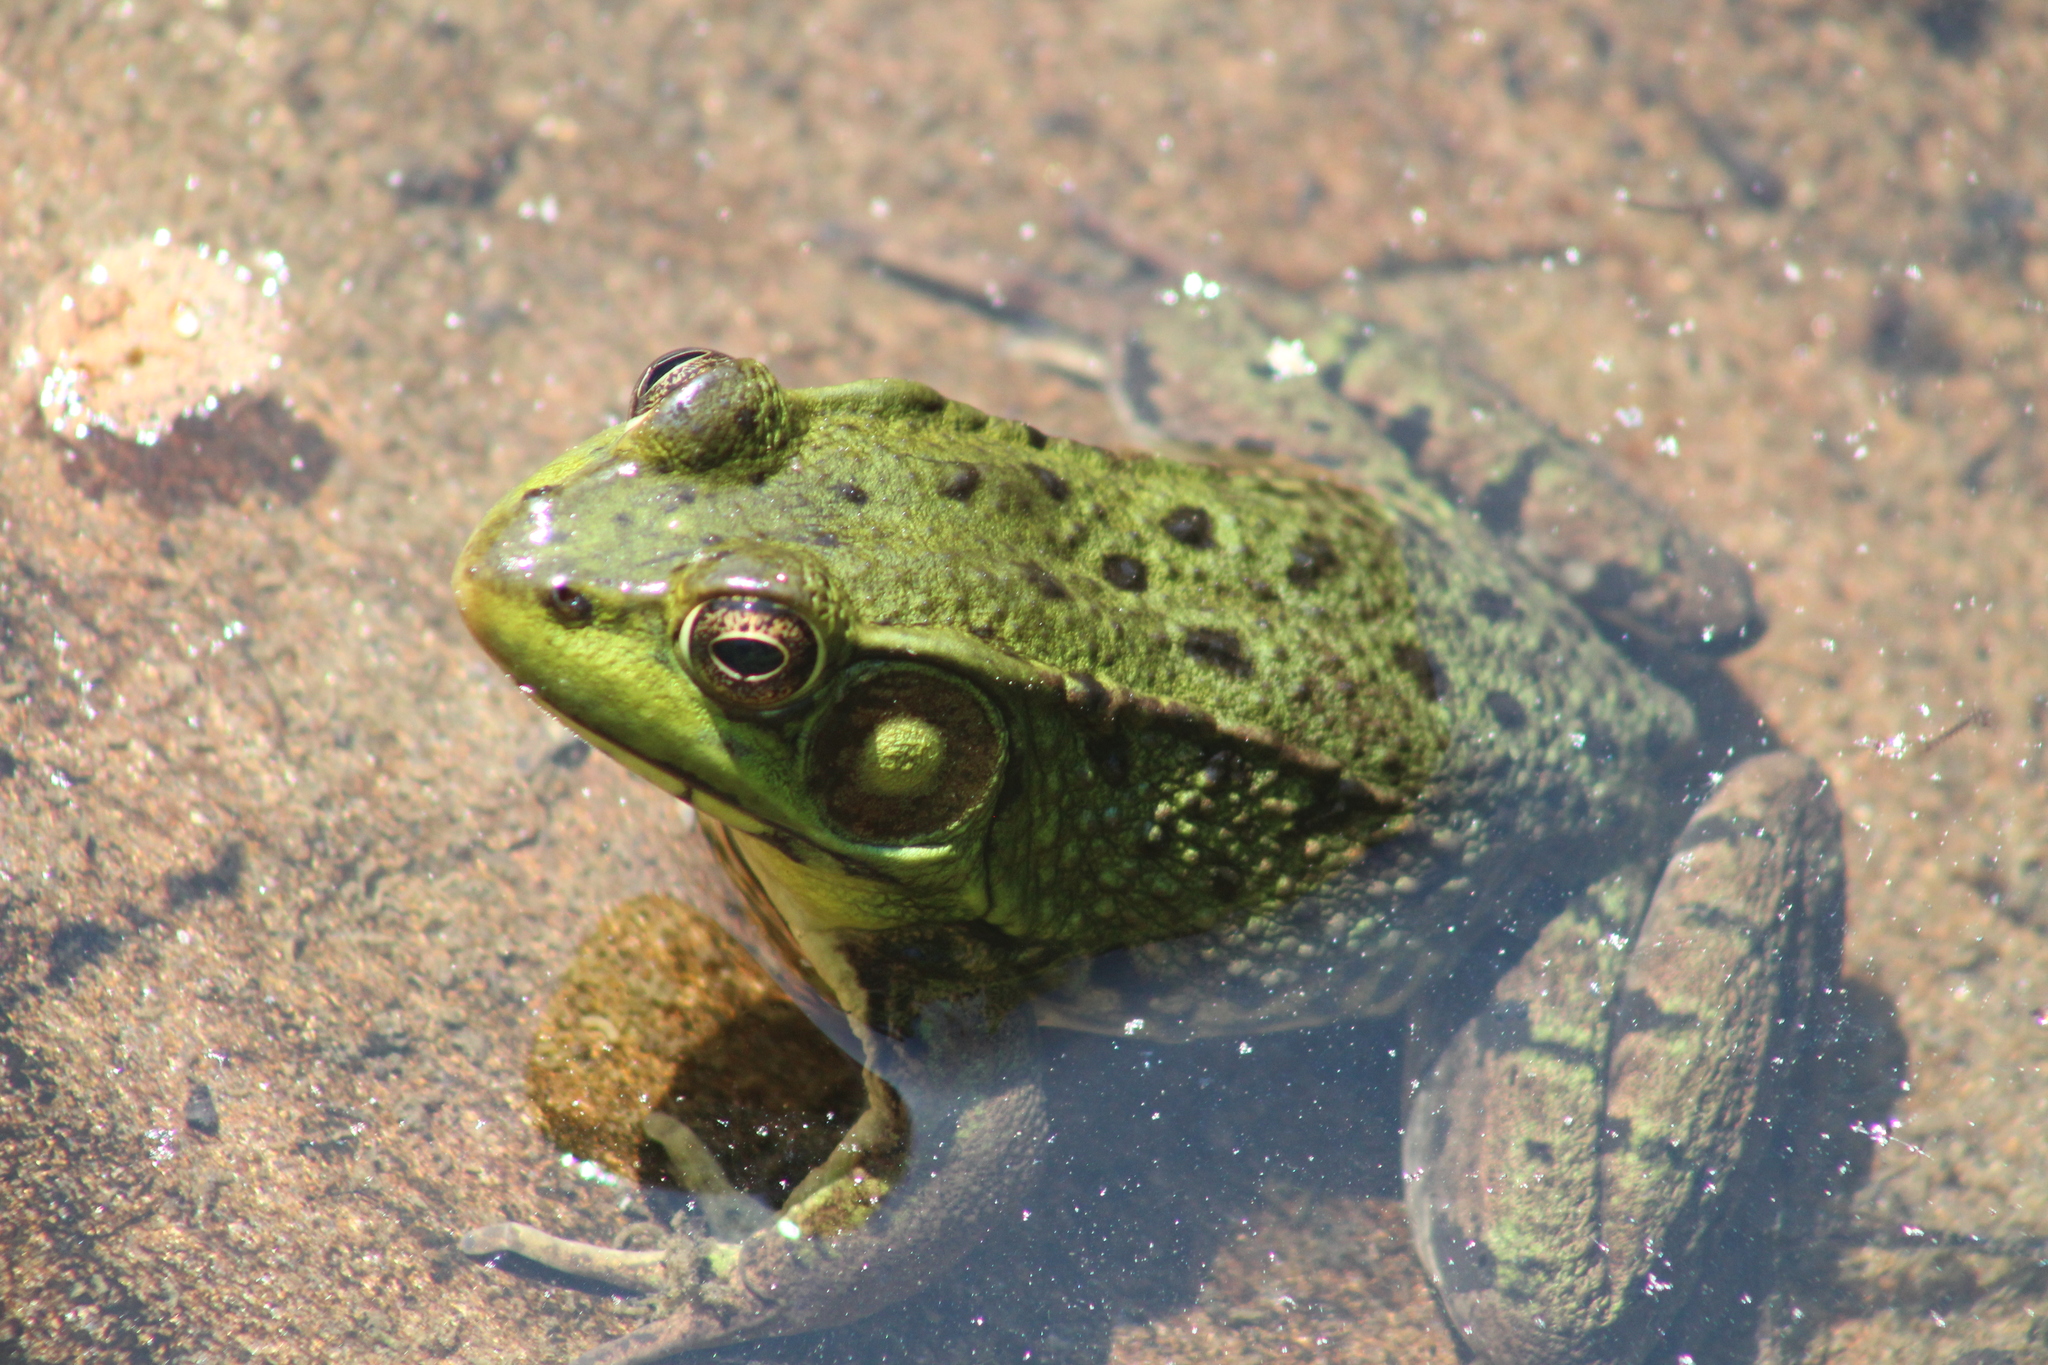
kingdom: Animalia
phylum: Chordata
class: Amphibia
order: Anura
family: Ranidae
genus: Lithobates
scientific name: Lithobates clamitans
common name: Green frog
